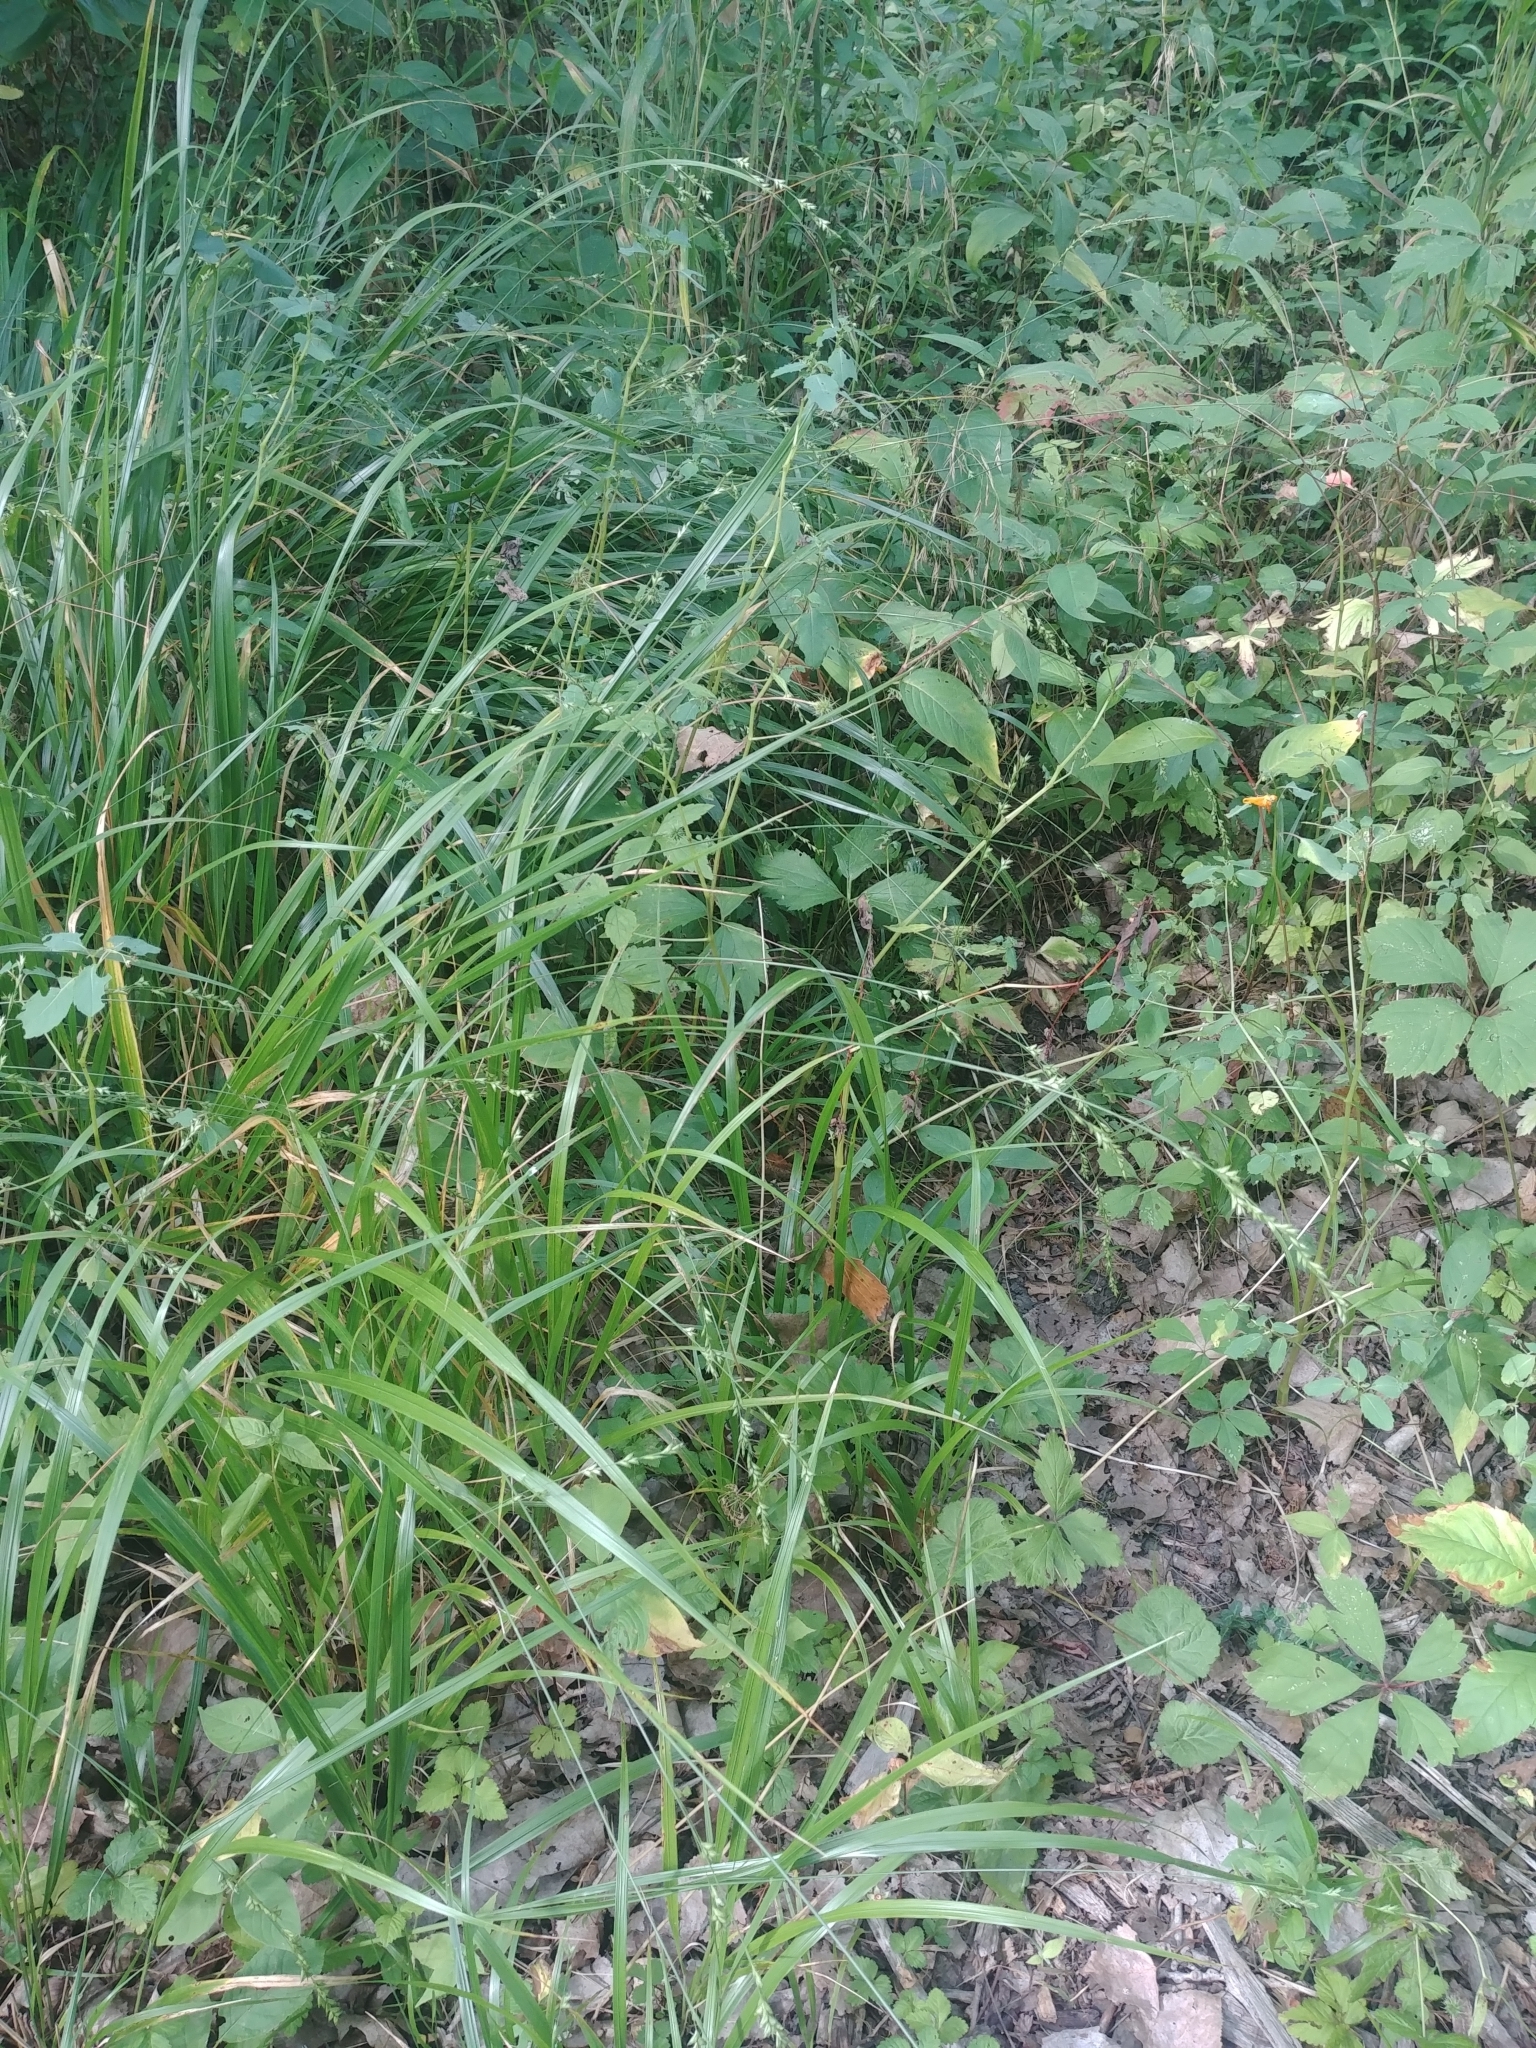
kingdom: Plantae
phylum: Tracheophyta
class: Liliopsida
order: Poales
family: Poaceae
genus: Diarrhena
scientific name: Diarrhena obovata
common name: Beakgrass
